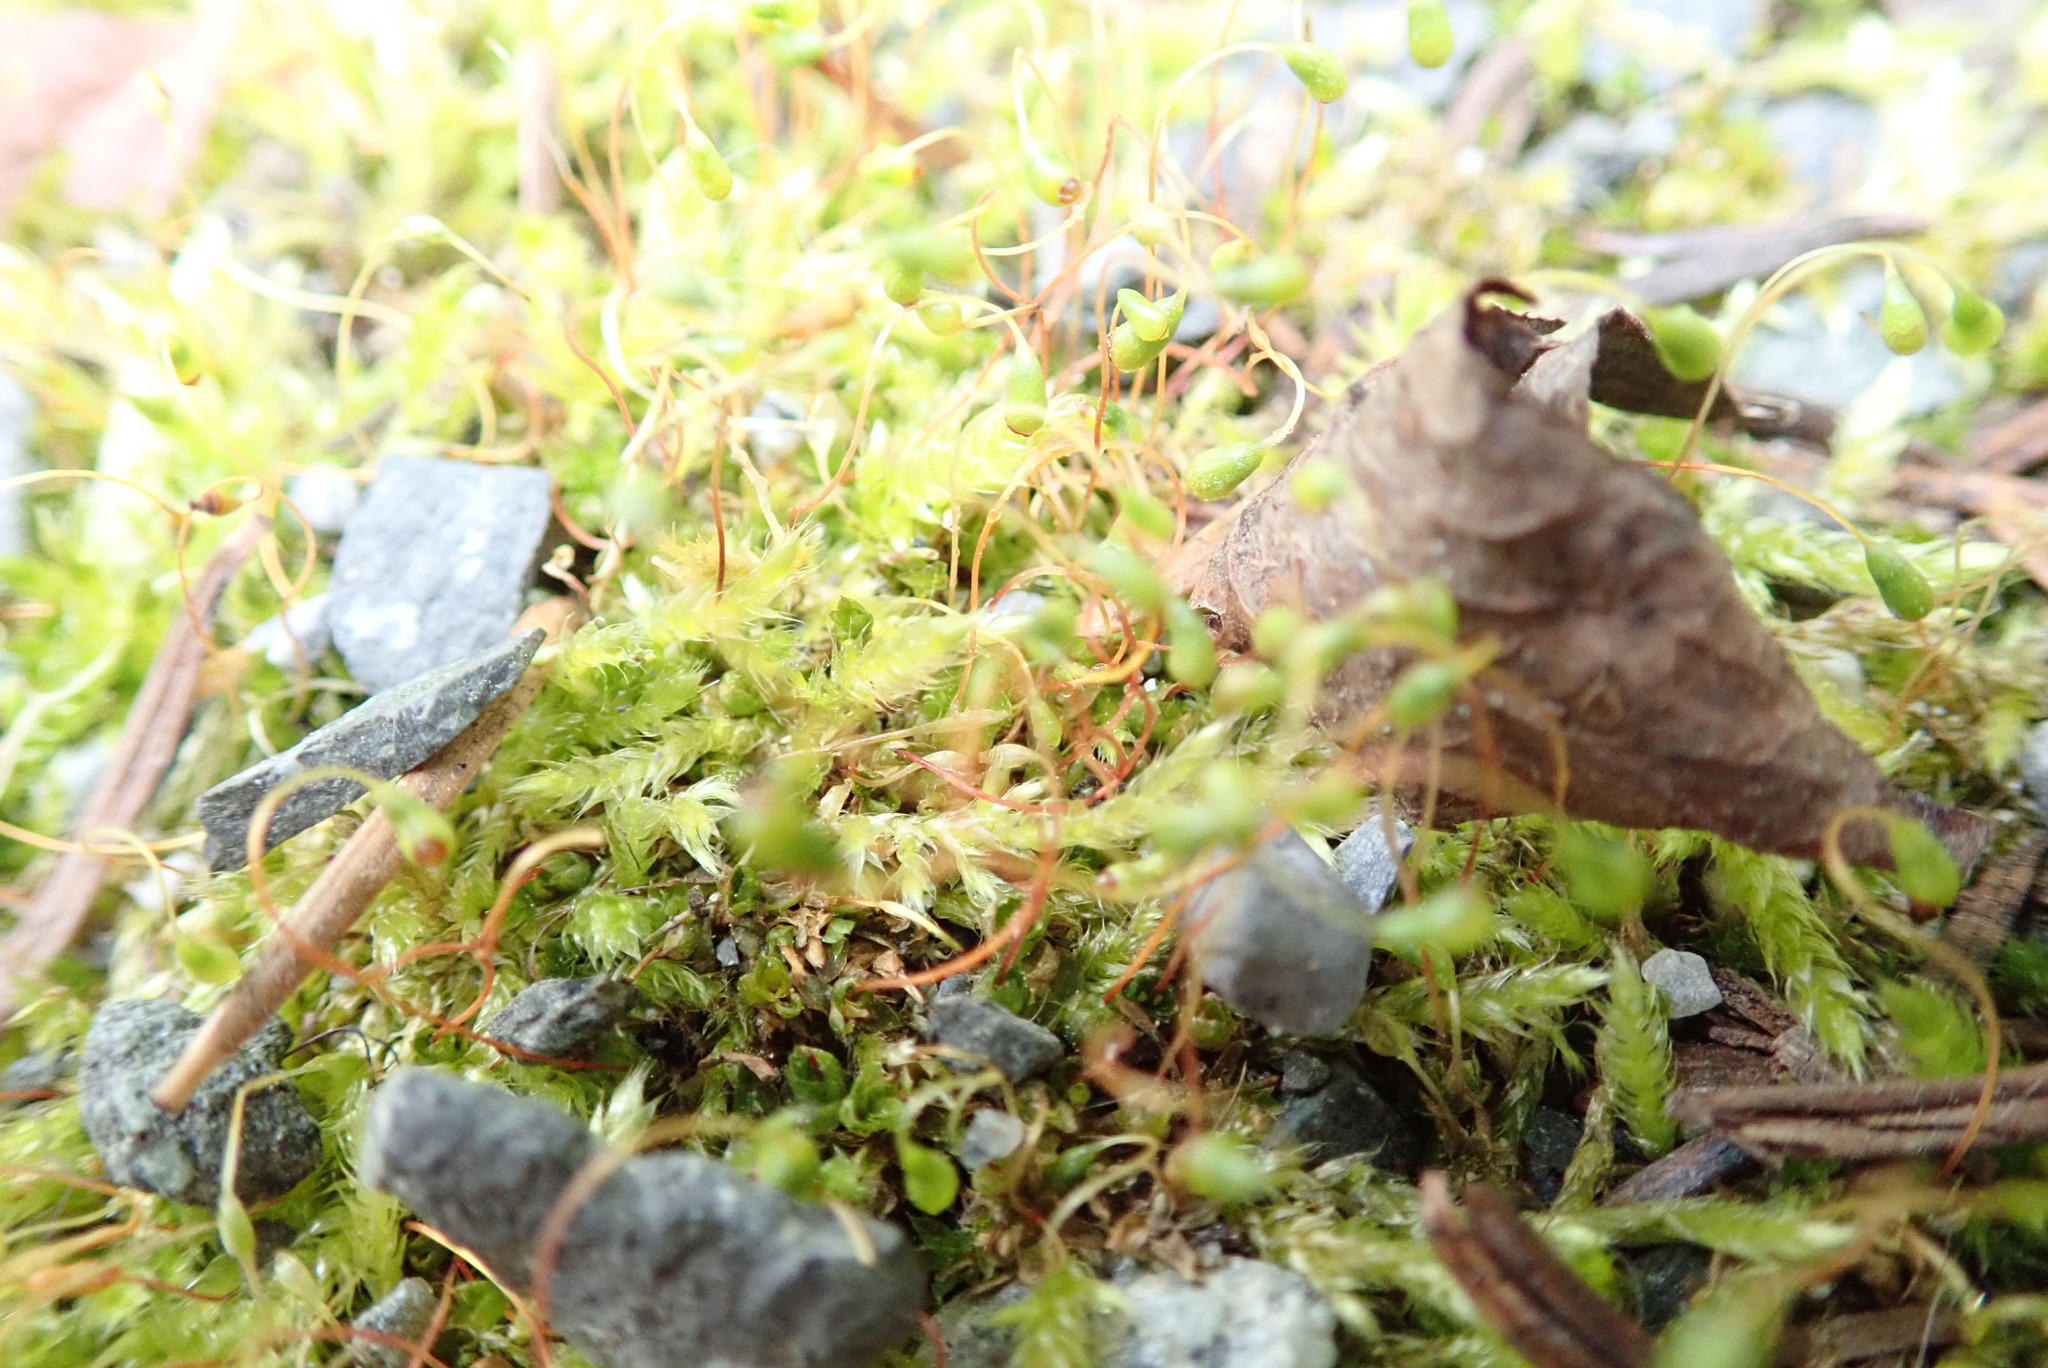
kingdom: Plantae
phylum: Bryophyta
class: Bryopsida
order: Funariales
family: Funariaceae
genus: Funaria
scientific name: Funaria hygrometrica
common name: Common cord moss
